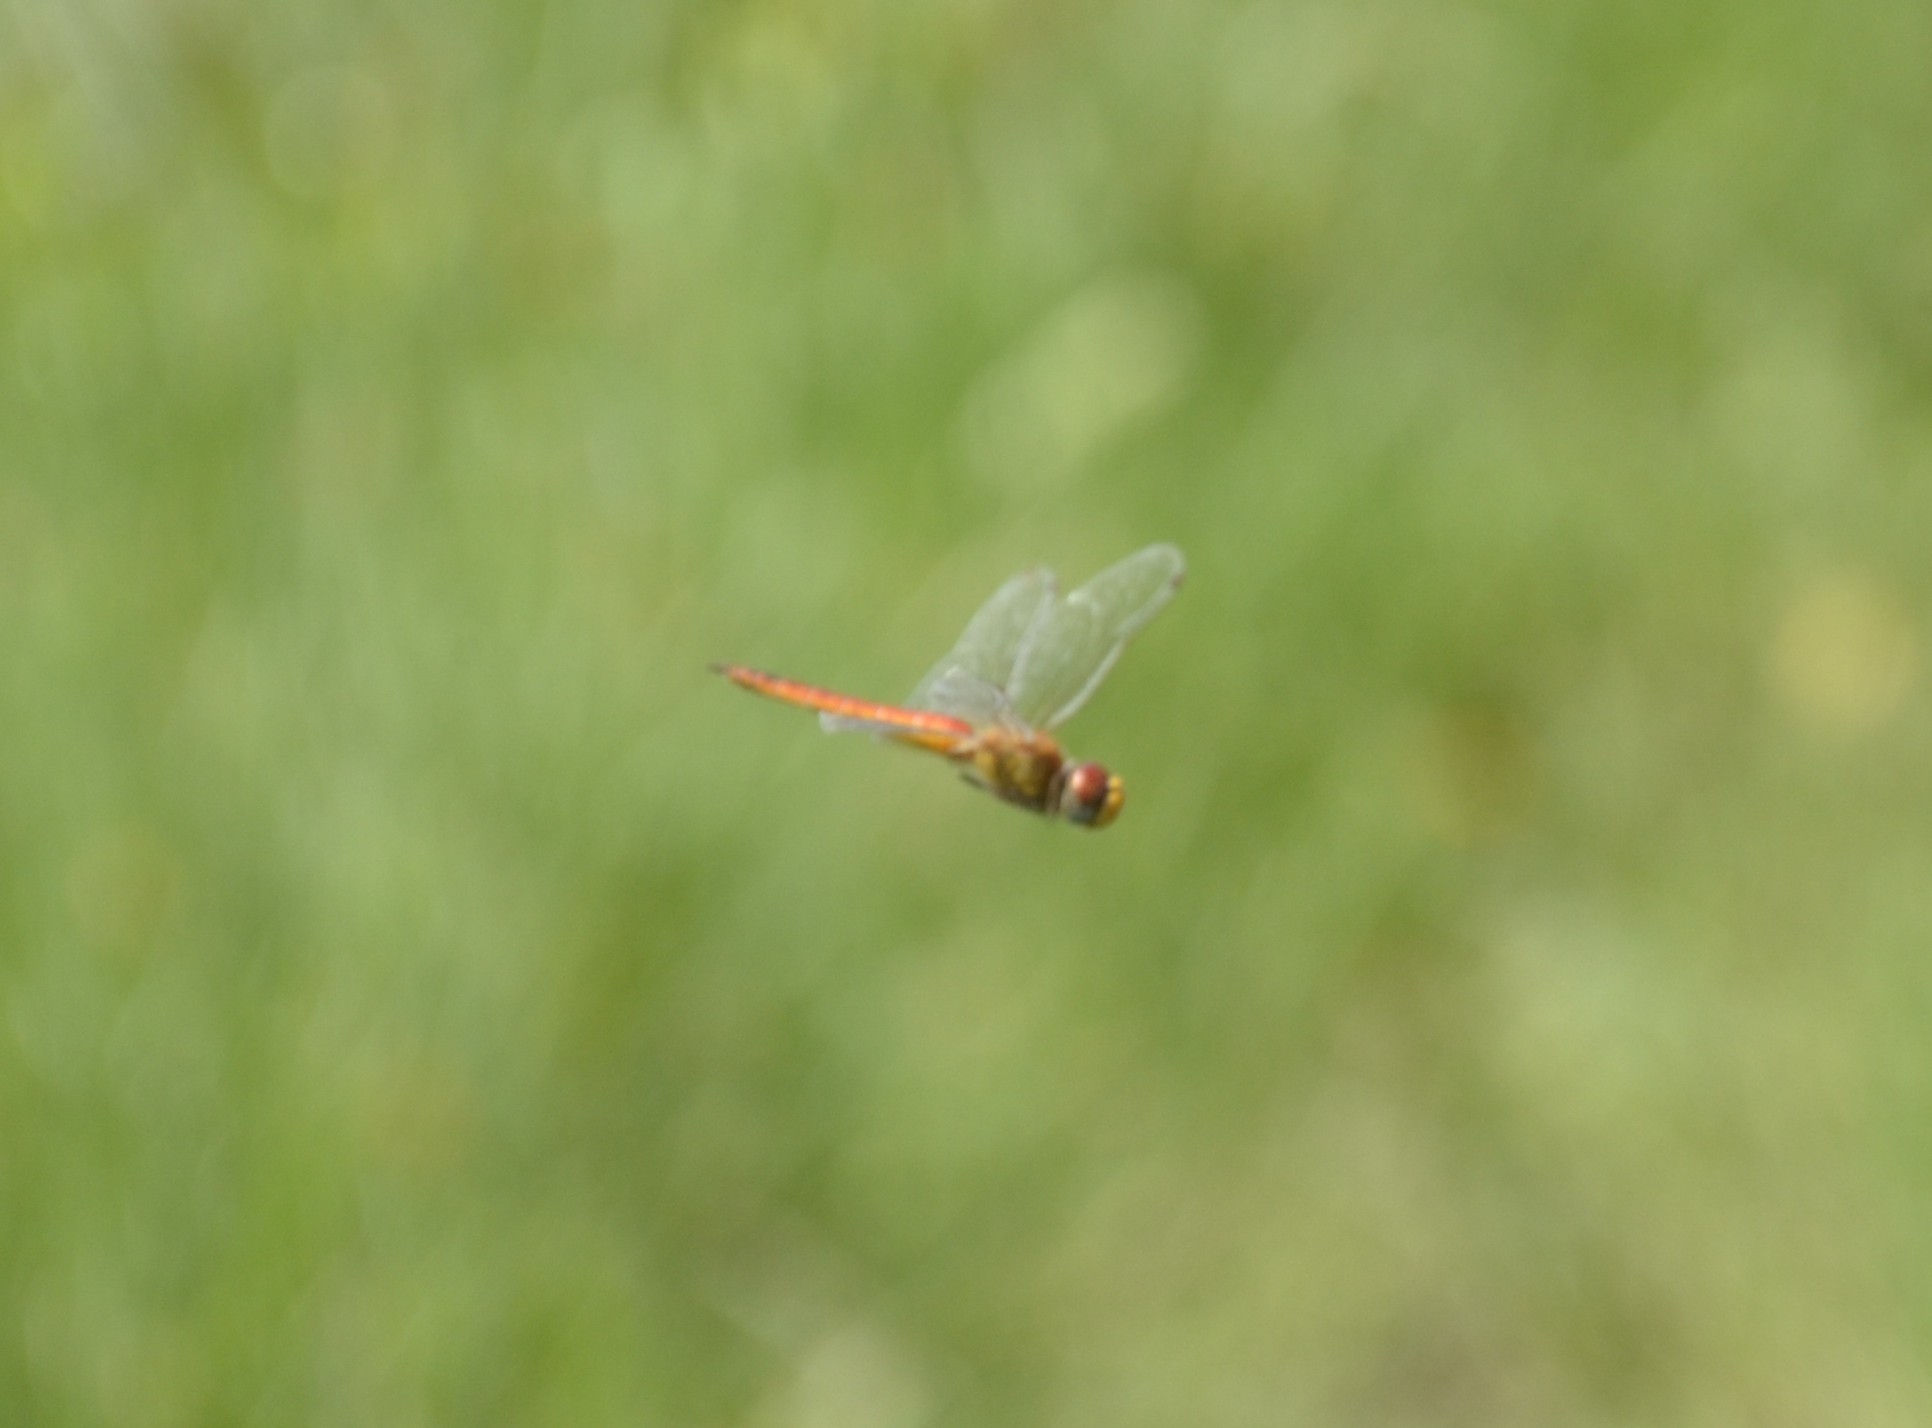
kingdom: Animalia
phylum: Arthropoda
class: Insecta
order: Odonata
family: Libellulidae
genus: Pantala
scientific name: Pantala flavescens
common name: Wandering glider
